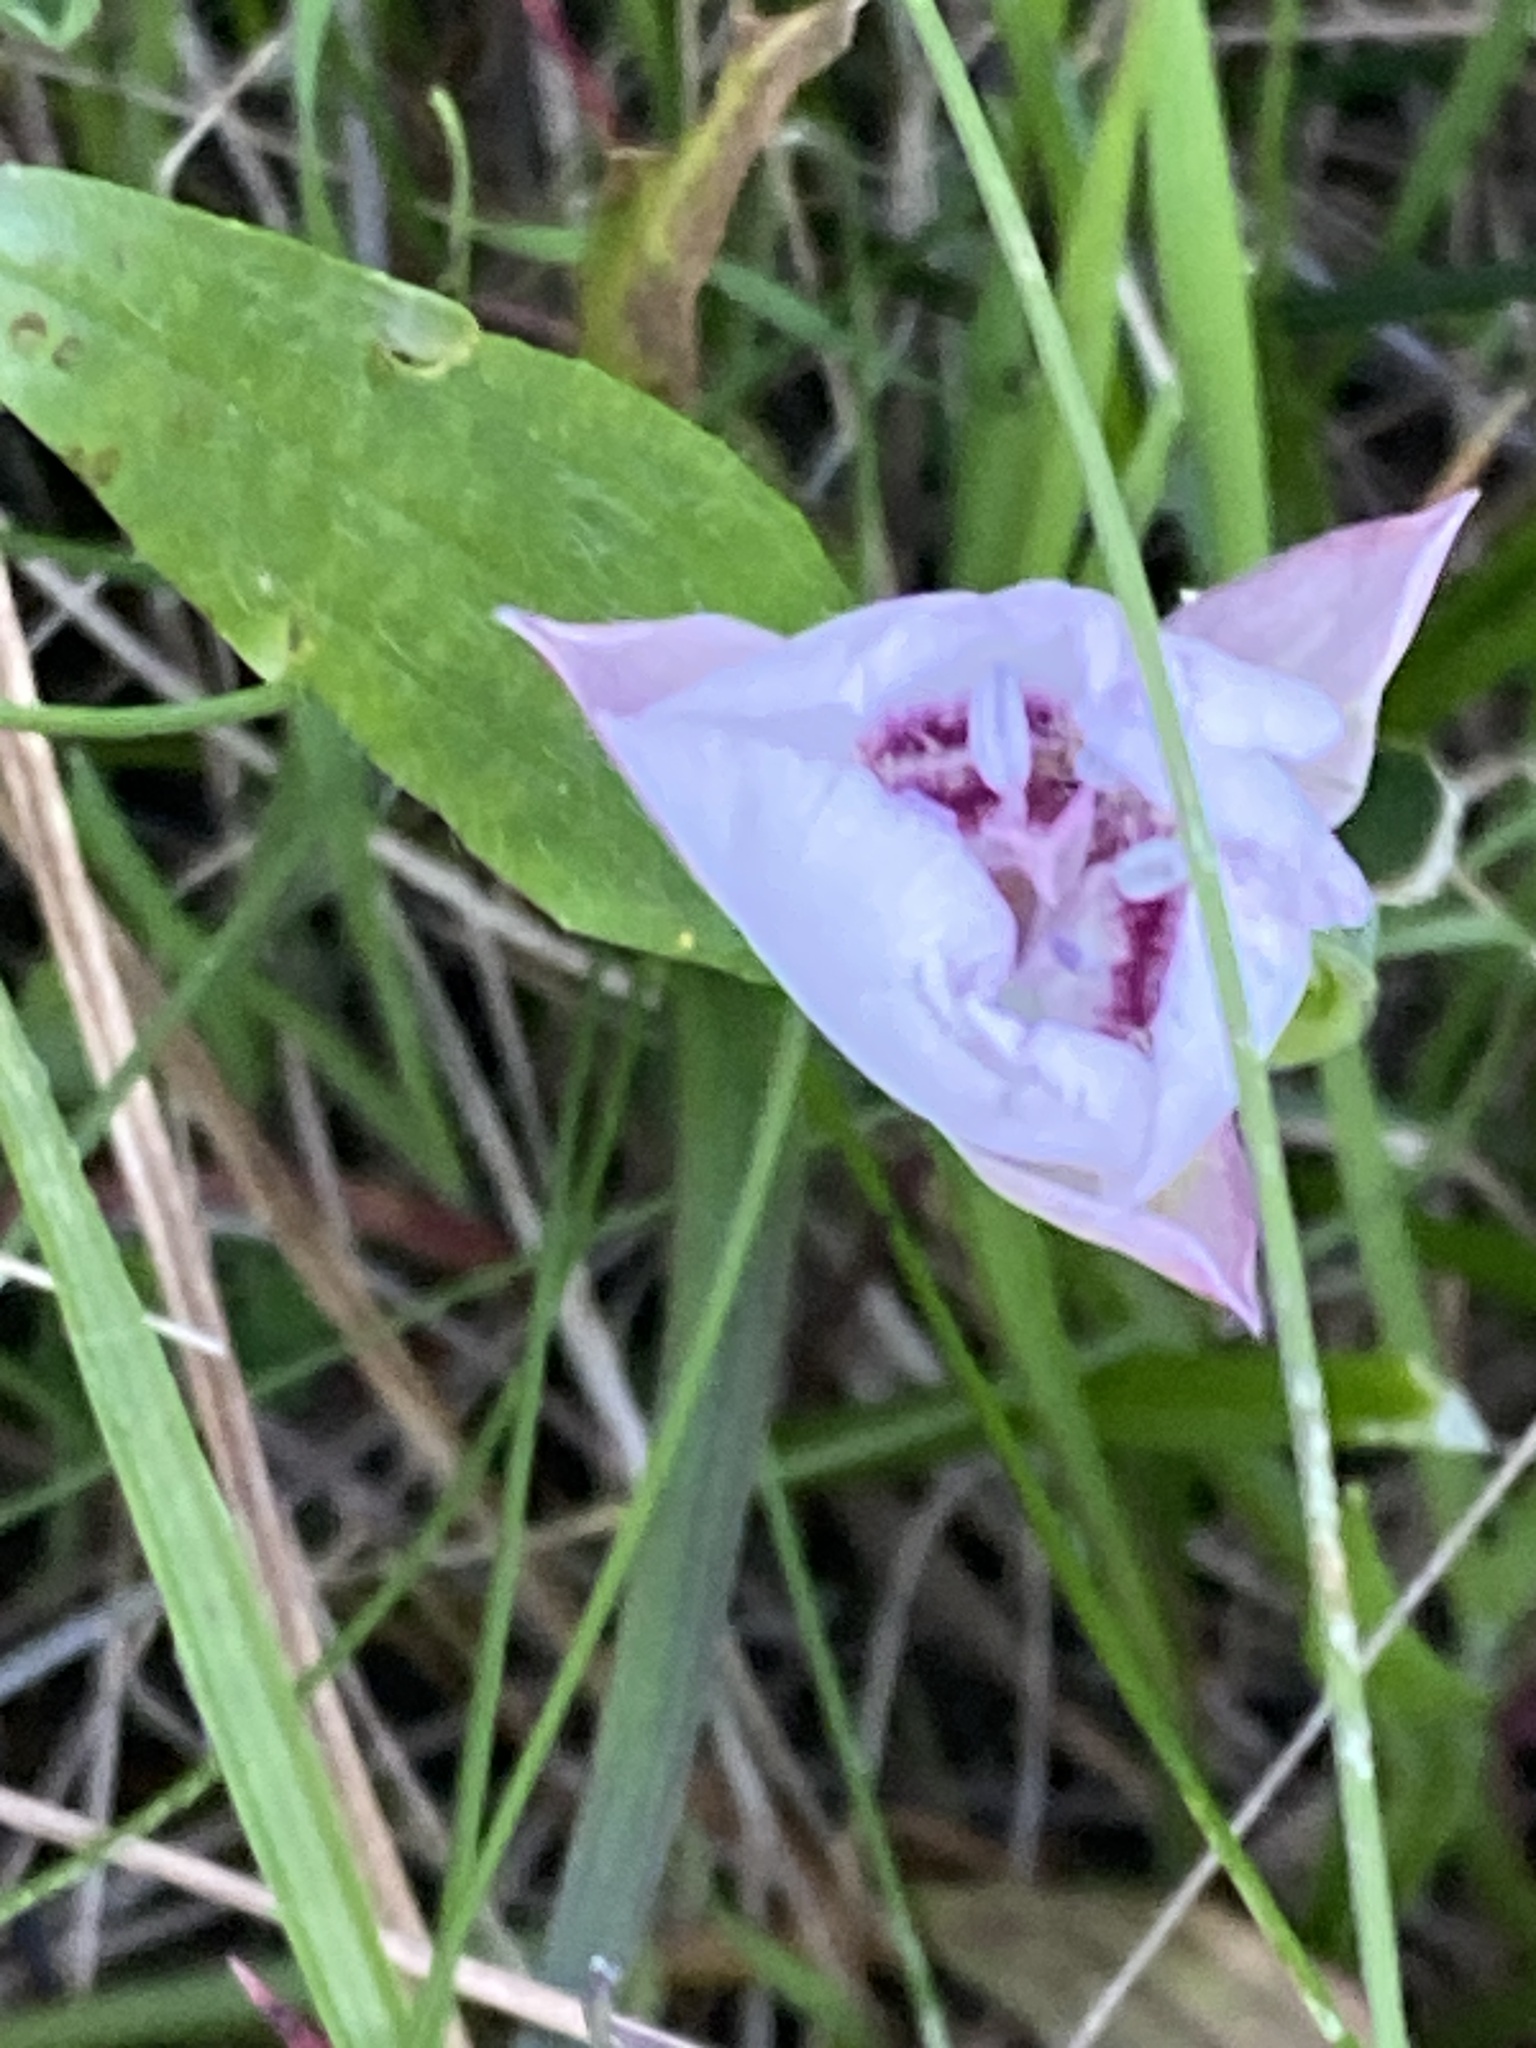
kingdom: Plantae
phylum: Tracheophyta
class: Liliopsida
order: Liliales
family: Liliaceae
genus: Calochortus
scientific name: Calochortus umbellatus
